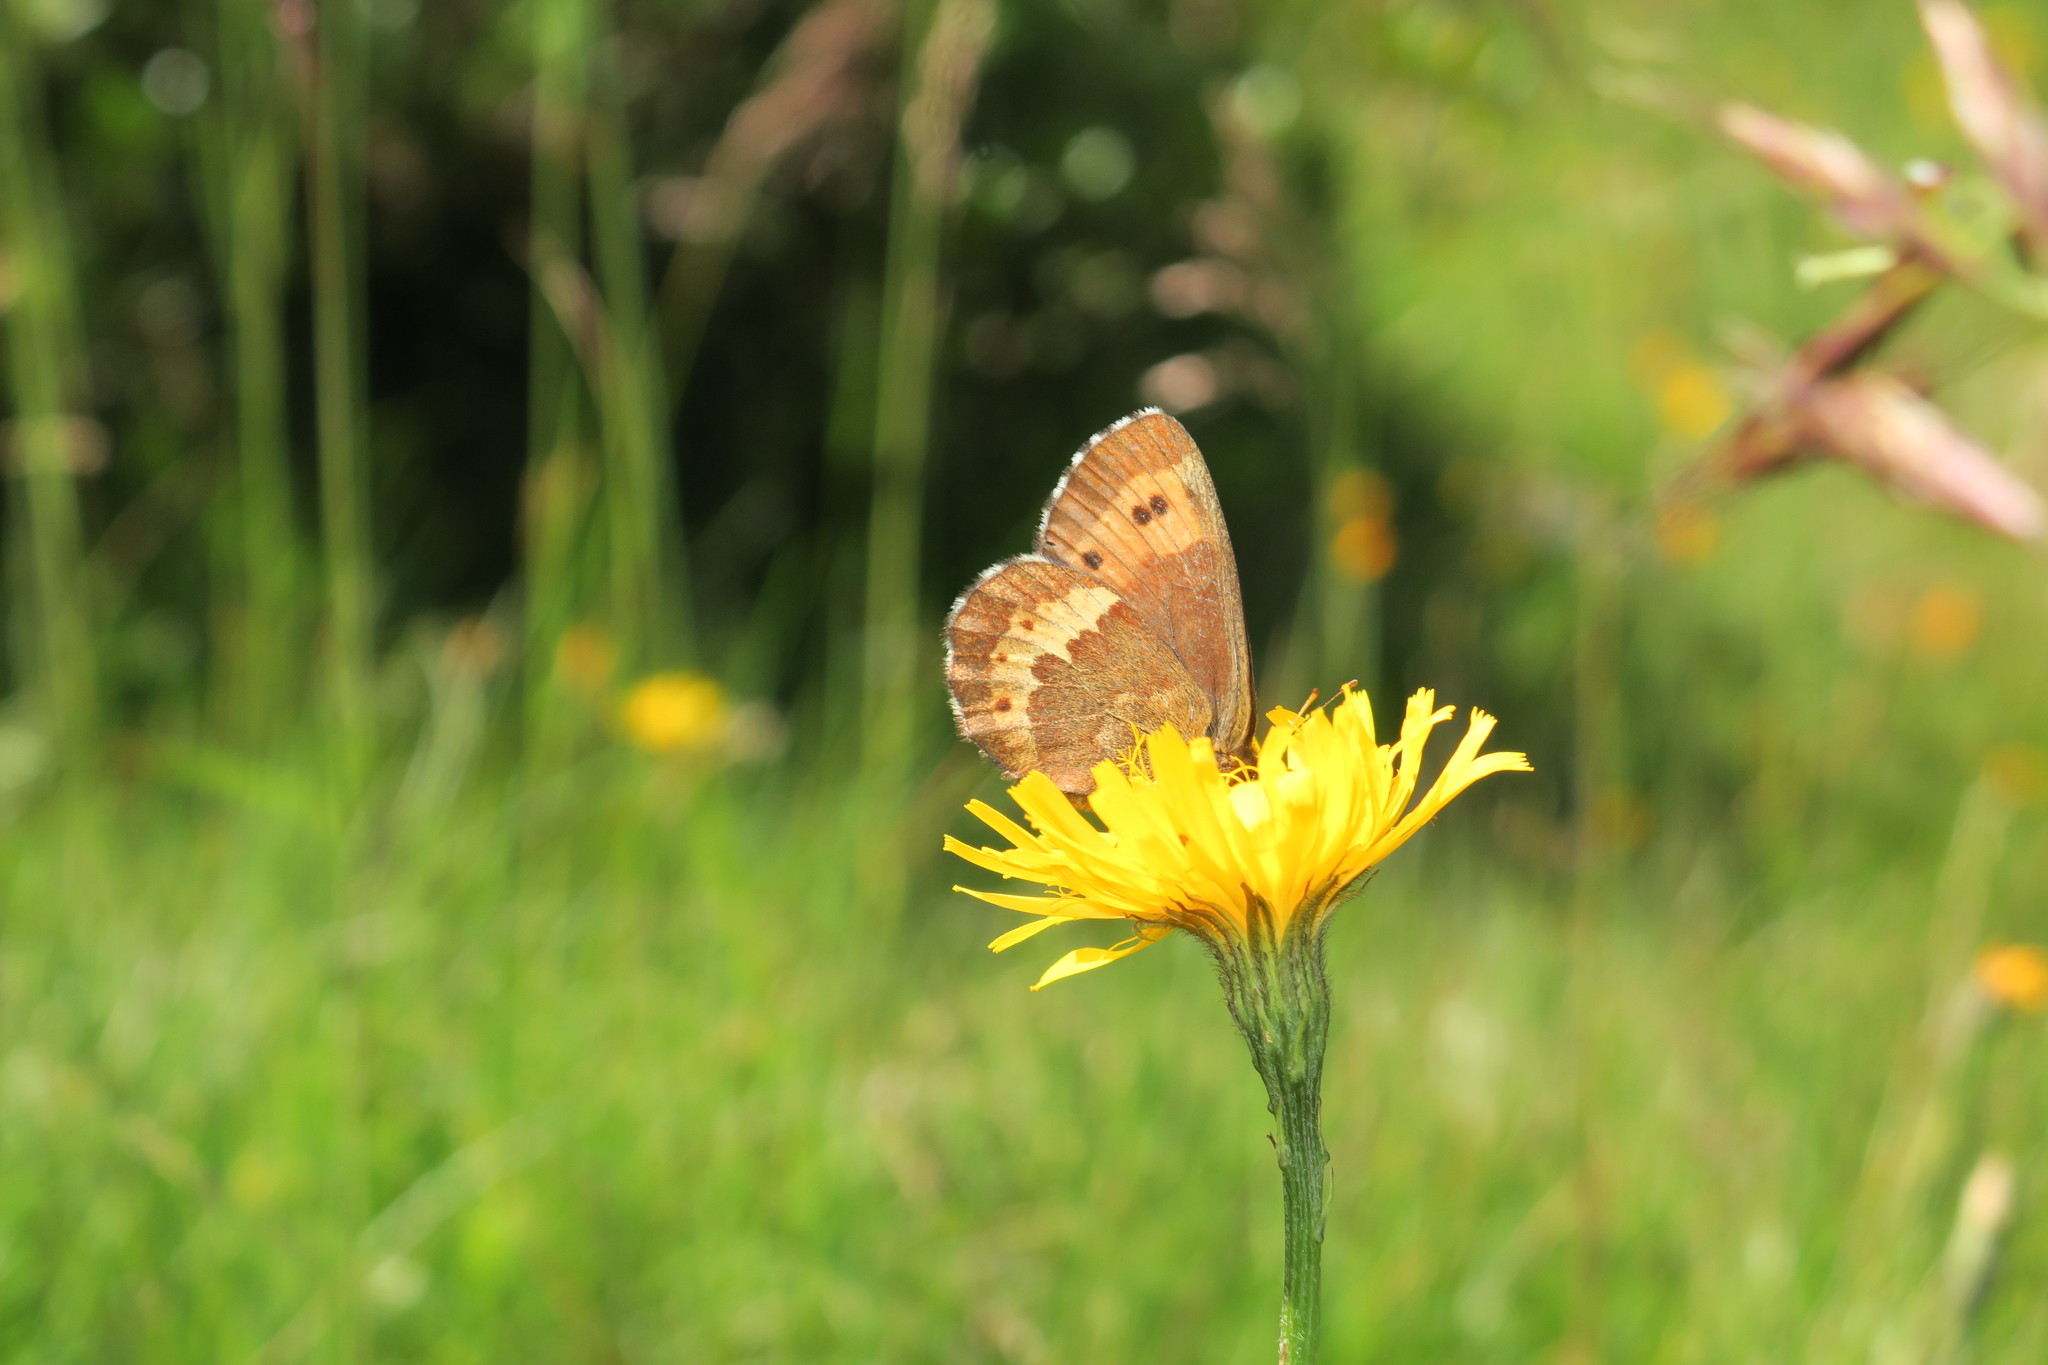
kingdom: Animalia
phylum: Arthropoda
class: Insecta
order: Lepidoptera
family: Nymphalidae
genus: Erebia
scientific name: Erebia euryale
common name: Large ringlet
